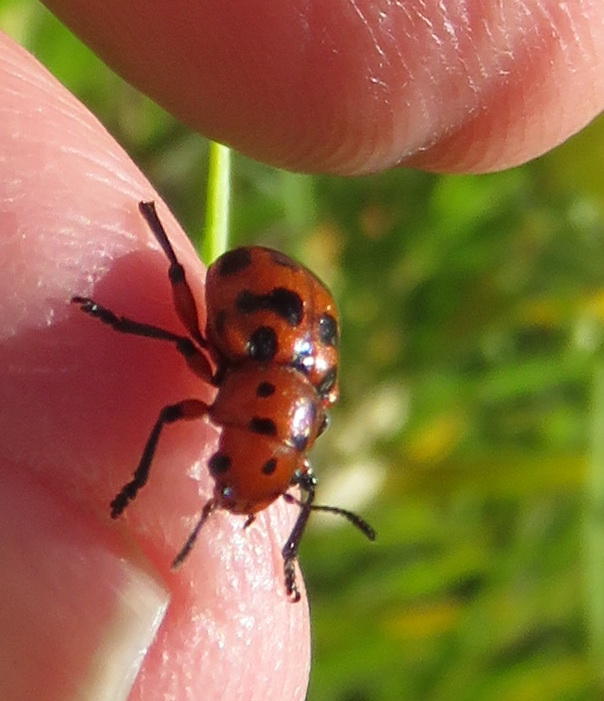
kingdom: Animalia
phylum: Arthropoda
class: Insecta
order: Coleoptera
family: Chrysomelidae
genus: Euryope
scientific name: Euryope
